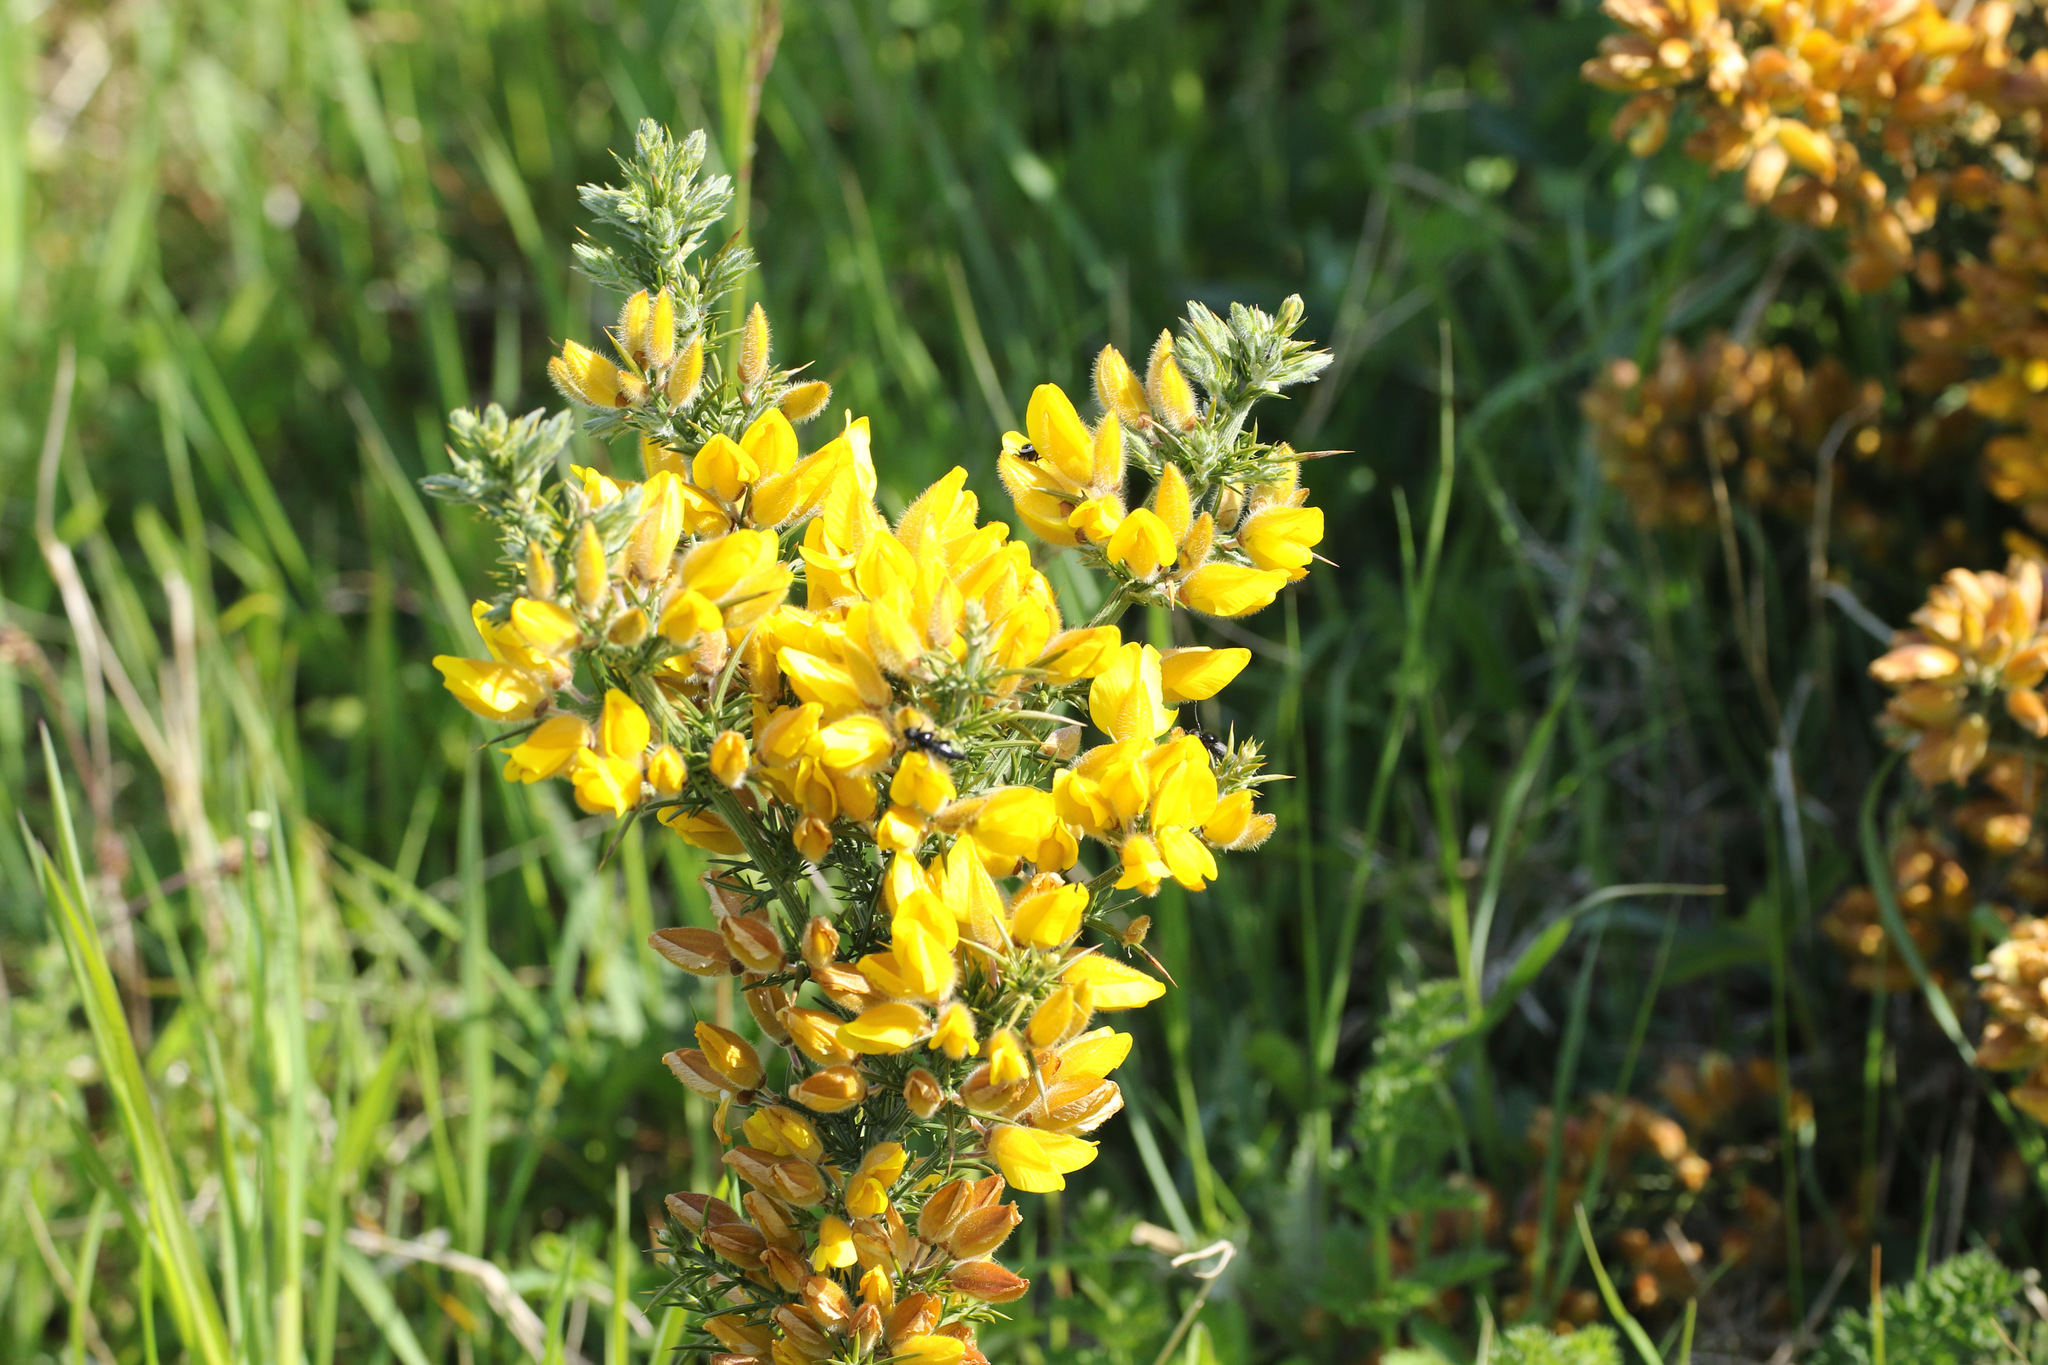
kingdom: Plantae
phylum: Tracheophyta
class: Magnoliopsida
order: Fabales
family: Fabaceae
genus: Ulex
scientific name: Ulex europaeus
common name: Common gorse
